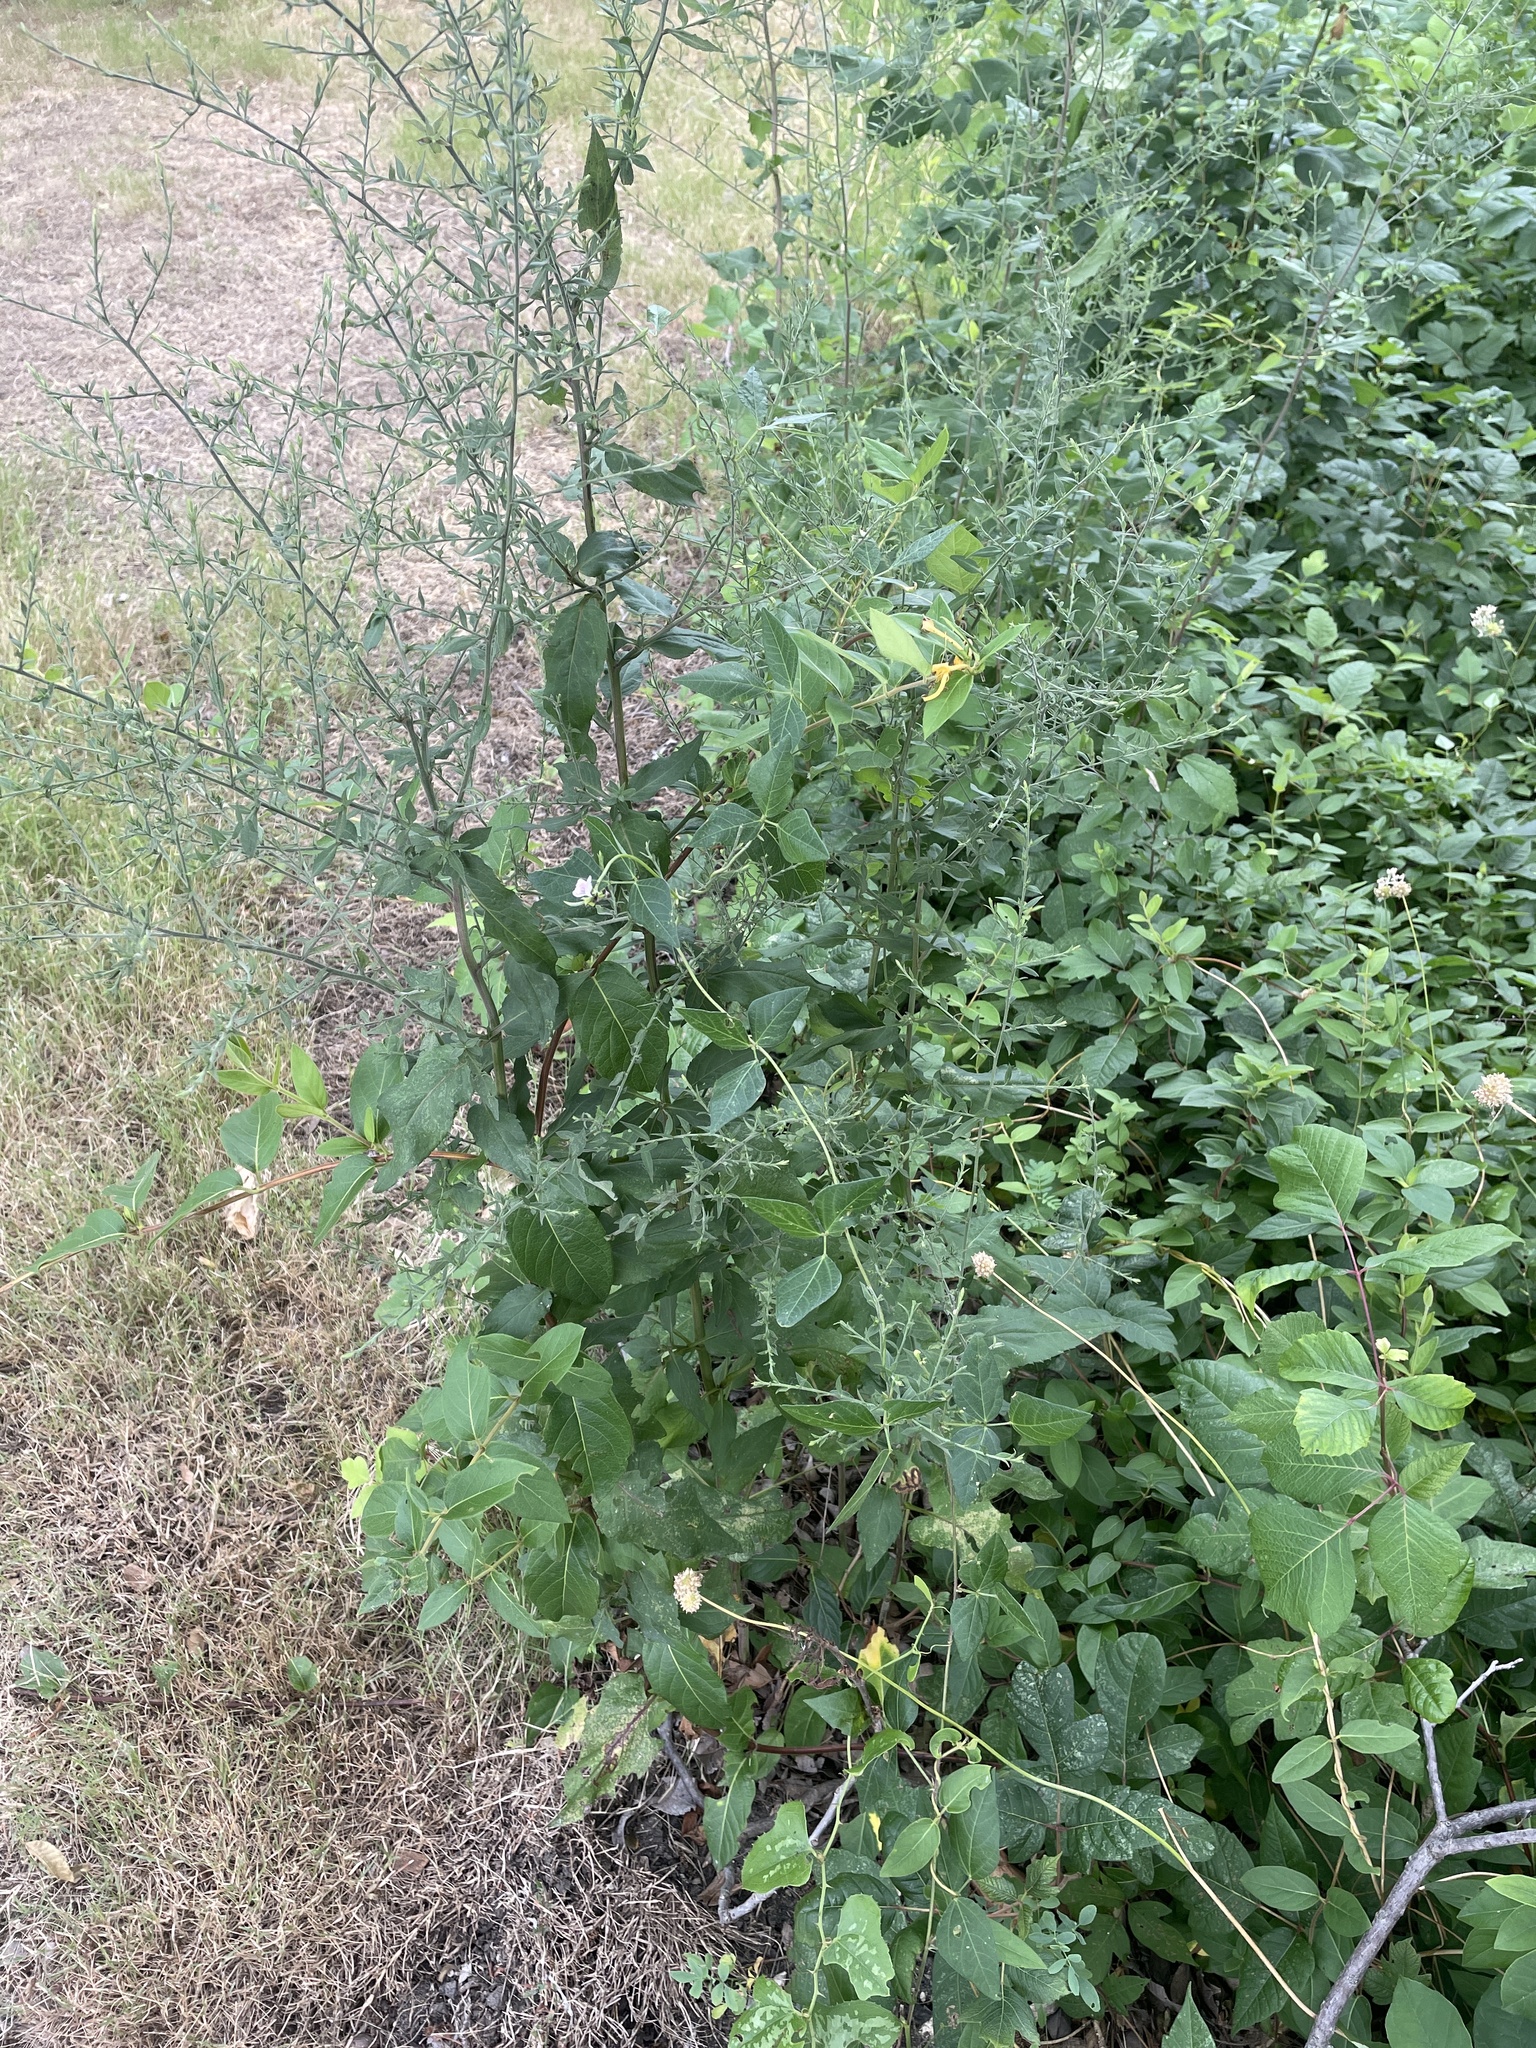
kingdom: Plantae
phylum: Tracheophyta
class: Magnoliopsida
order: Fabales
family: Fabaceae
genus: Strophostyles
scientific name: Strophostyles helvola
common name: Trailing wild bean
